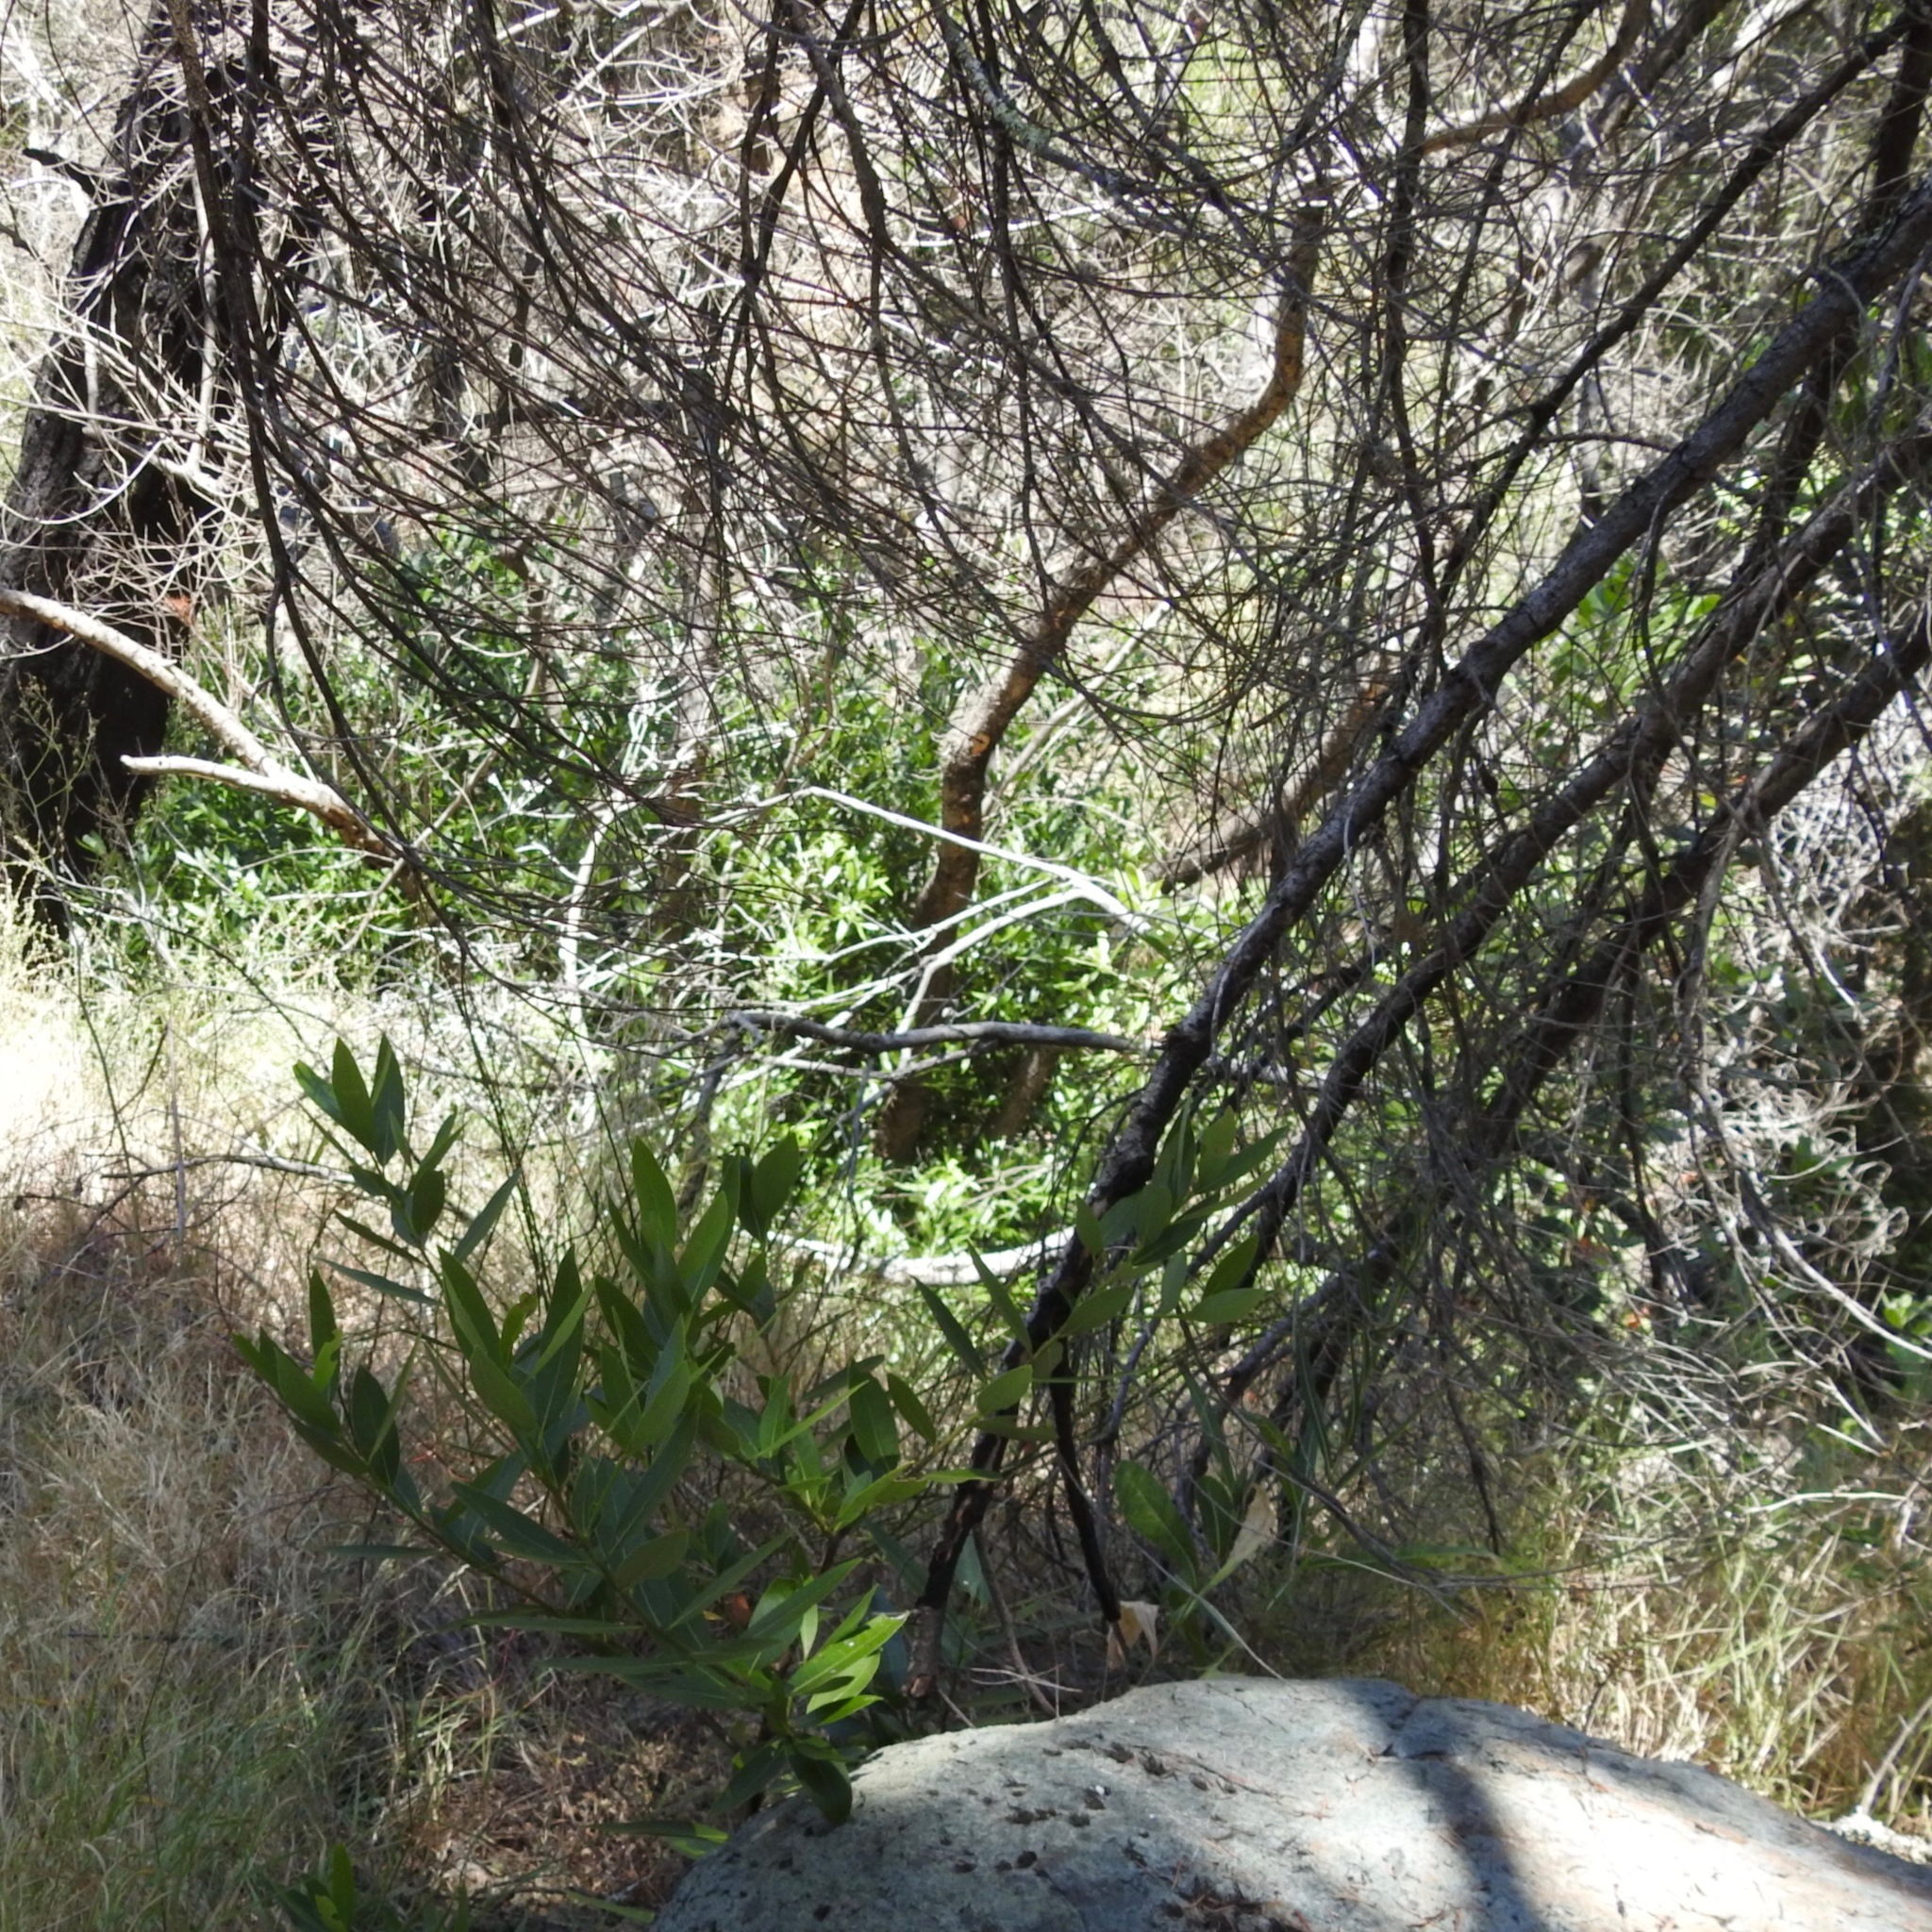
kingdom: Plantae
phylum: Tracheophyta
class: Magnoliopsida
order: Laurales
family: Lauraceae
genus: Umbellularia
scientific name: Umbellularia californica
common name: California bay
